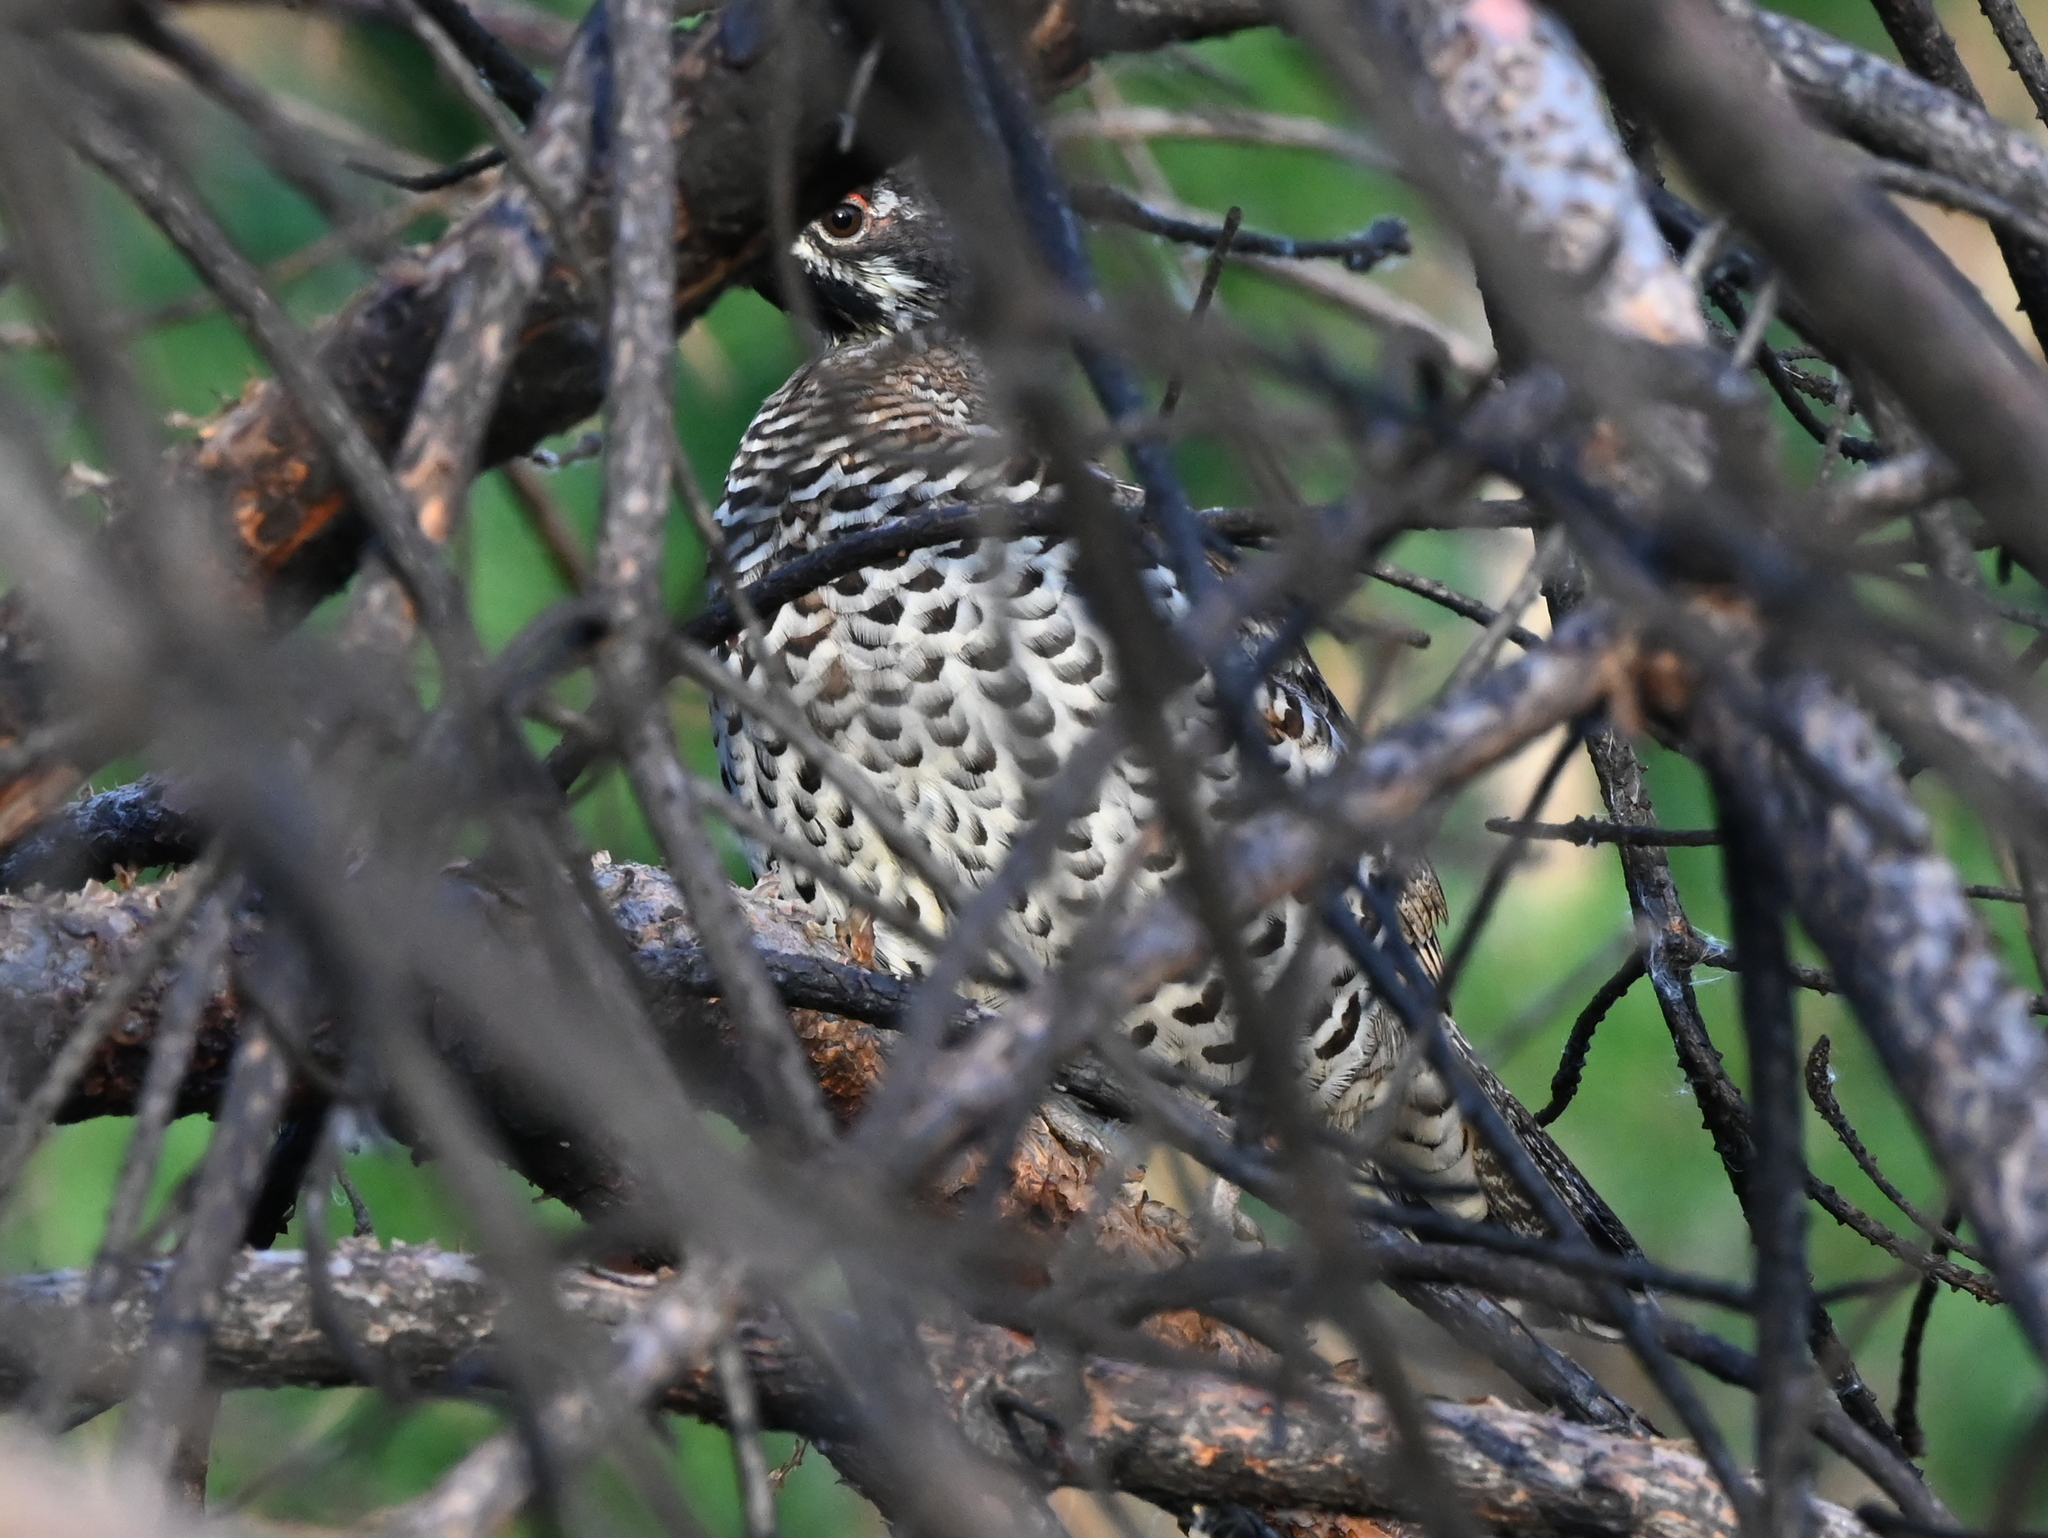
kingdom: Animalia
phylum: Chordata
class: Aves
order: Galliformes
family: Phasianidae
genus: Tetrastes
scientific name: Tetrastes bonasia
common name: Hazel grouse
